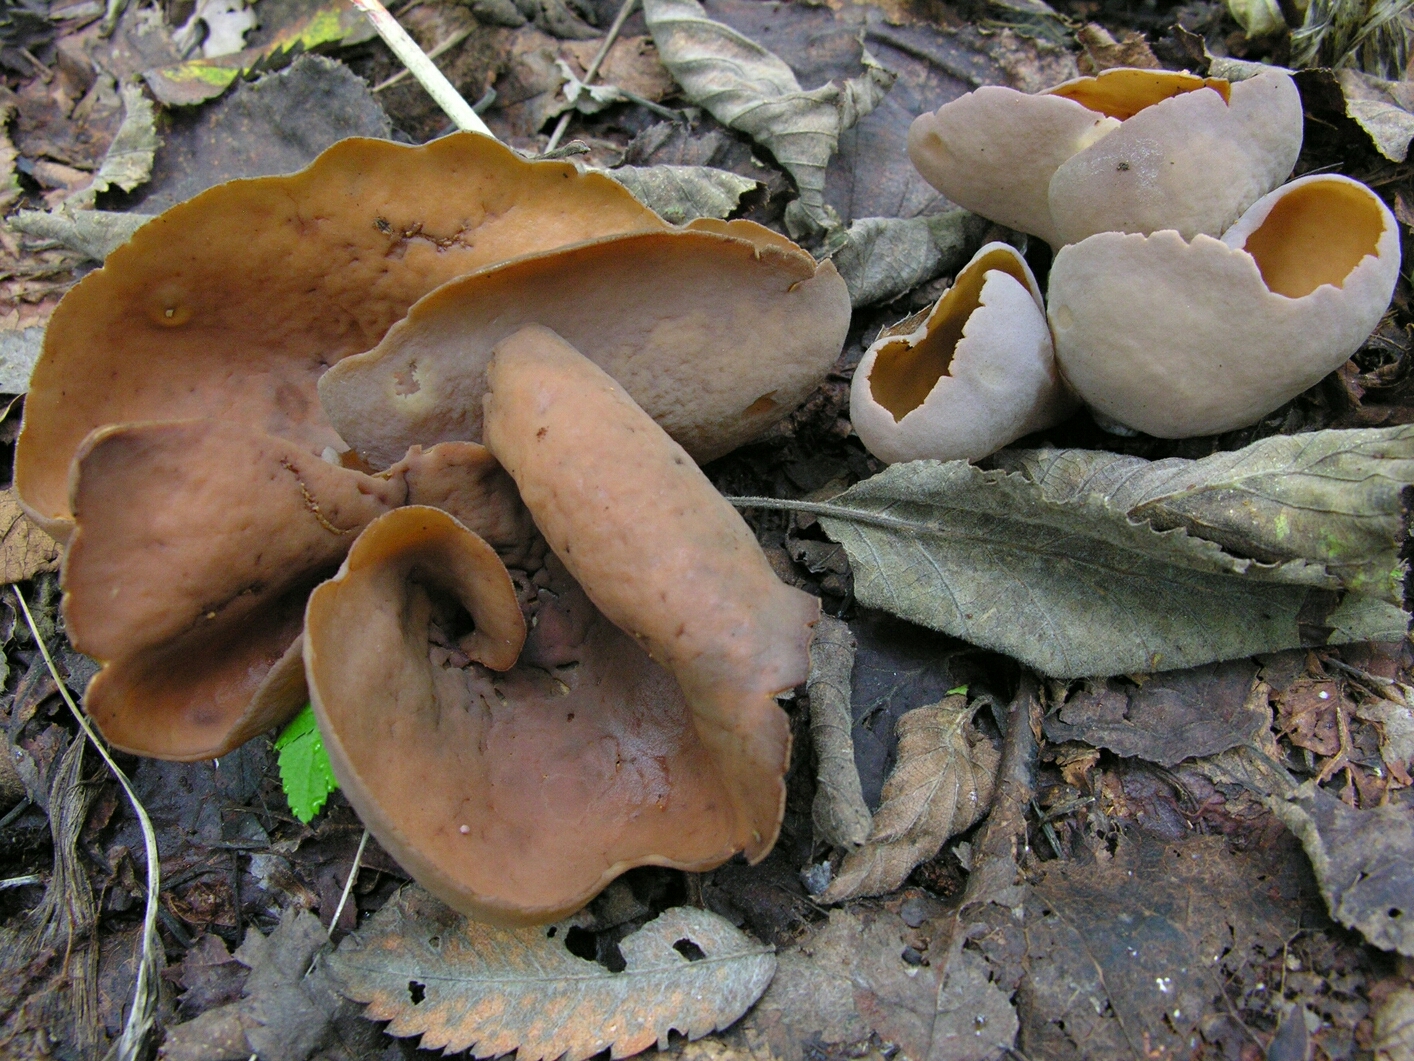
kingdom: Fungi
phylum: Ascomycota
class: Pezizomycetes
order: Pezizales
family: Otideaceae
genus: Otidea
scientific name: Otidea bufonia
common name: Toad's ear
